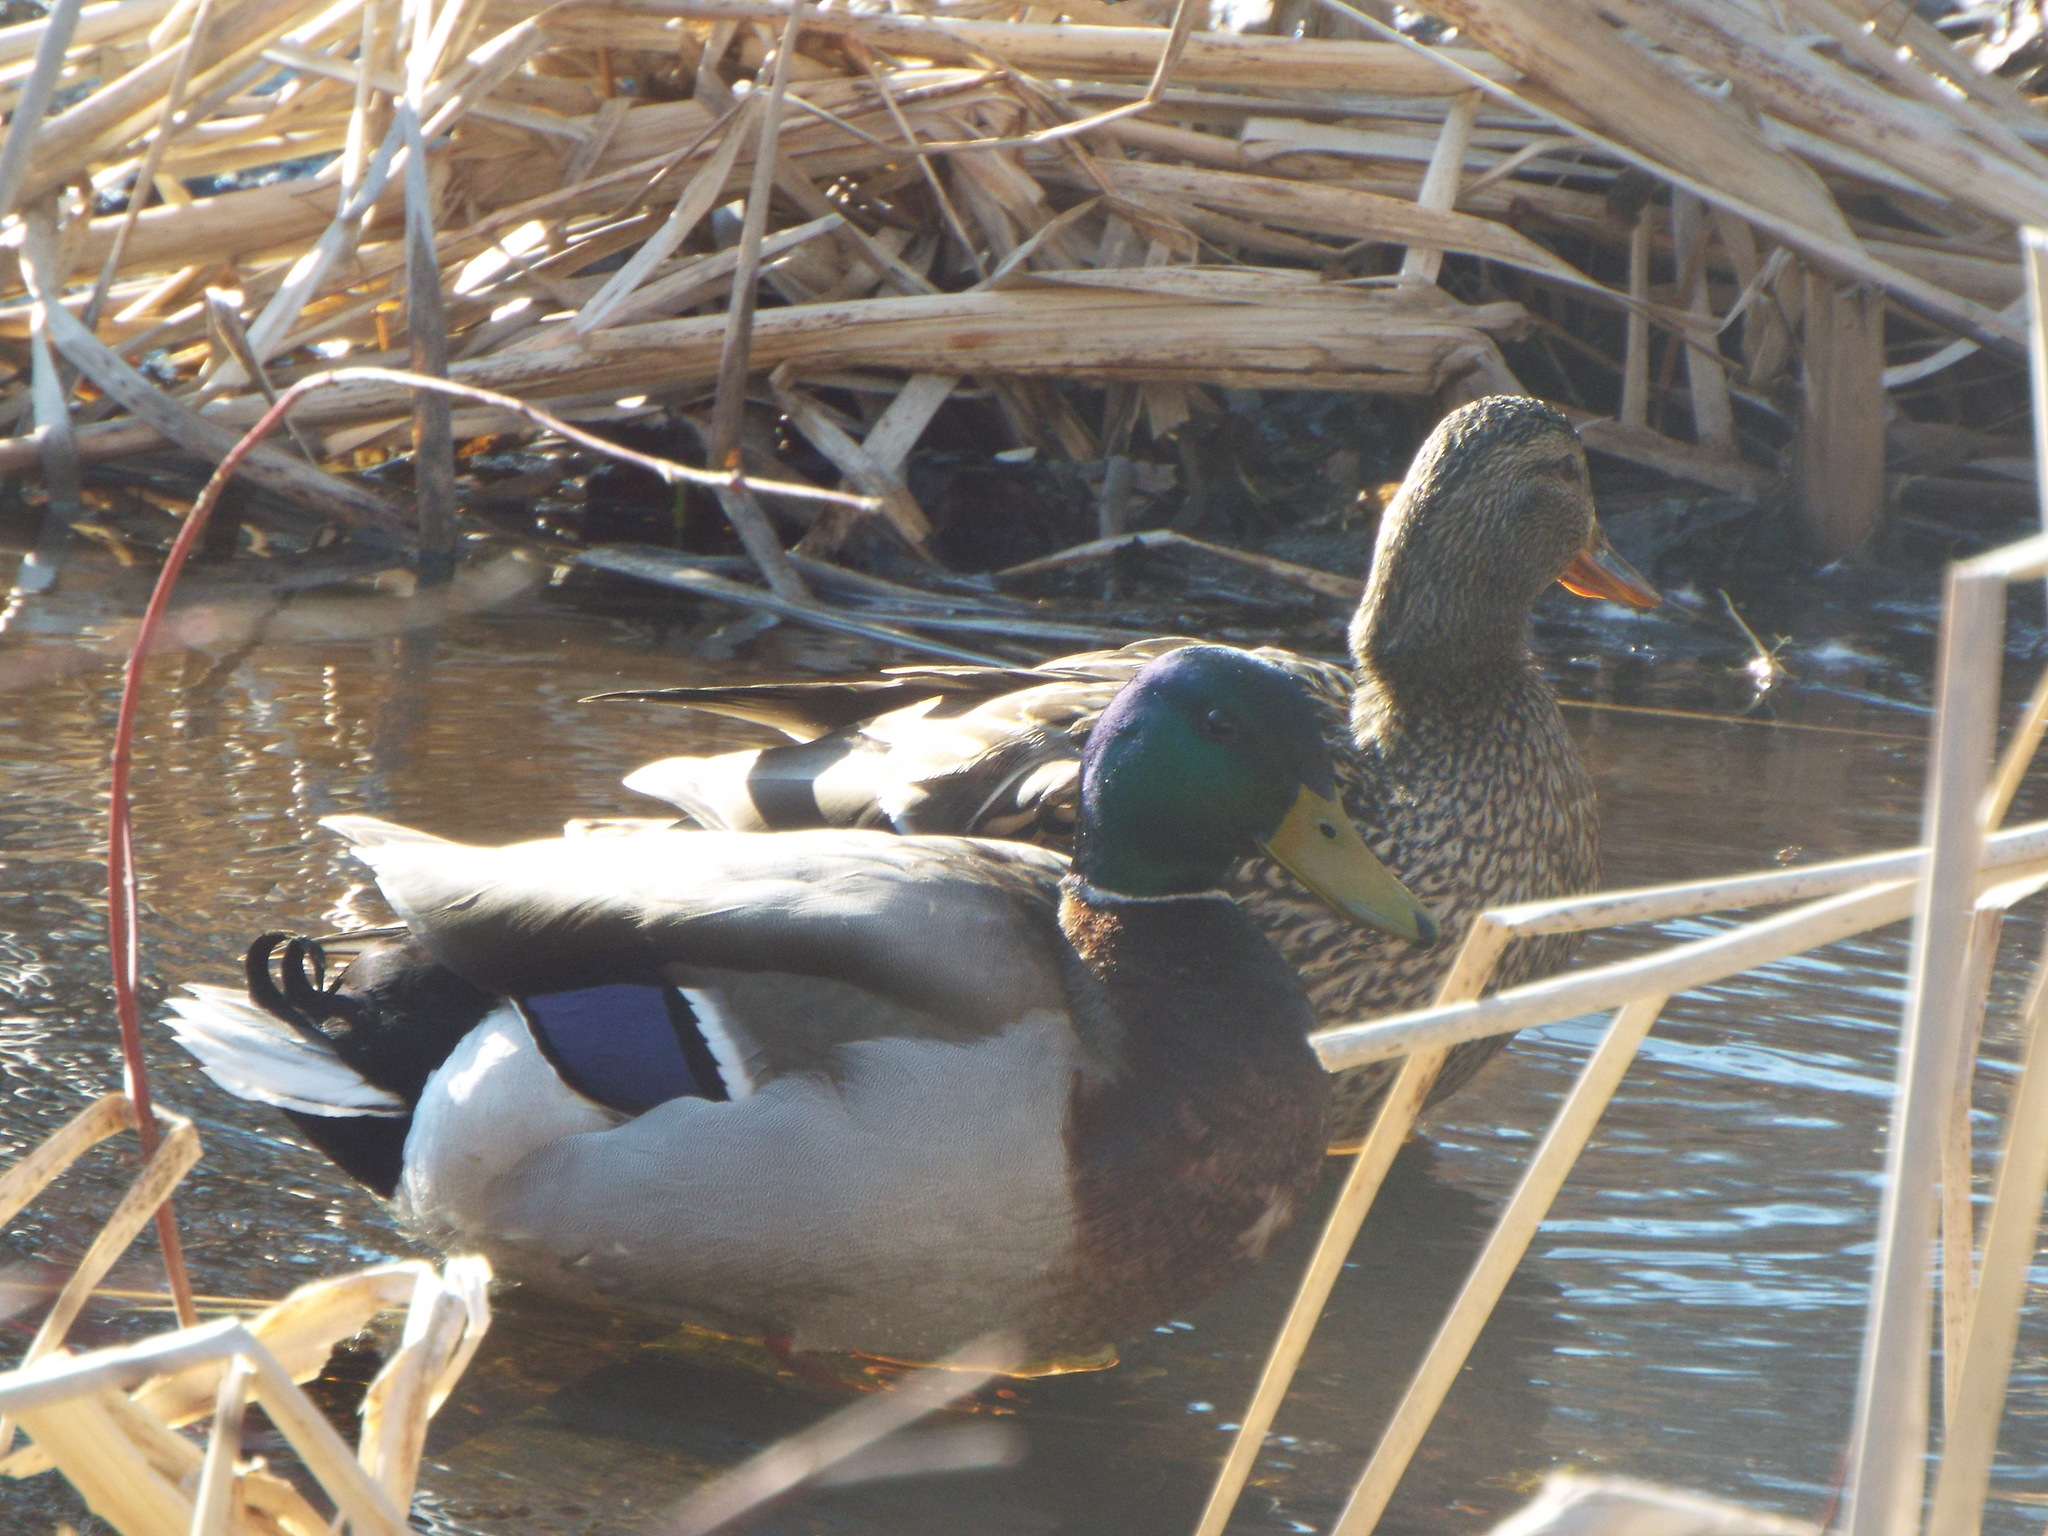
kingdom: Animalia
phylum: Chordata
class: Aves
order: Anseriformes
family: Anatidae
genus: Anas
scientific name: Anas platyrhynchos
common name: Mallard
